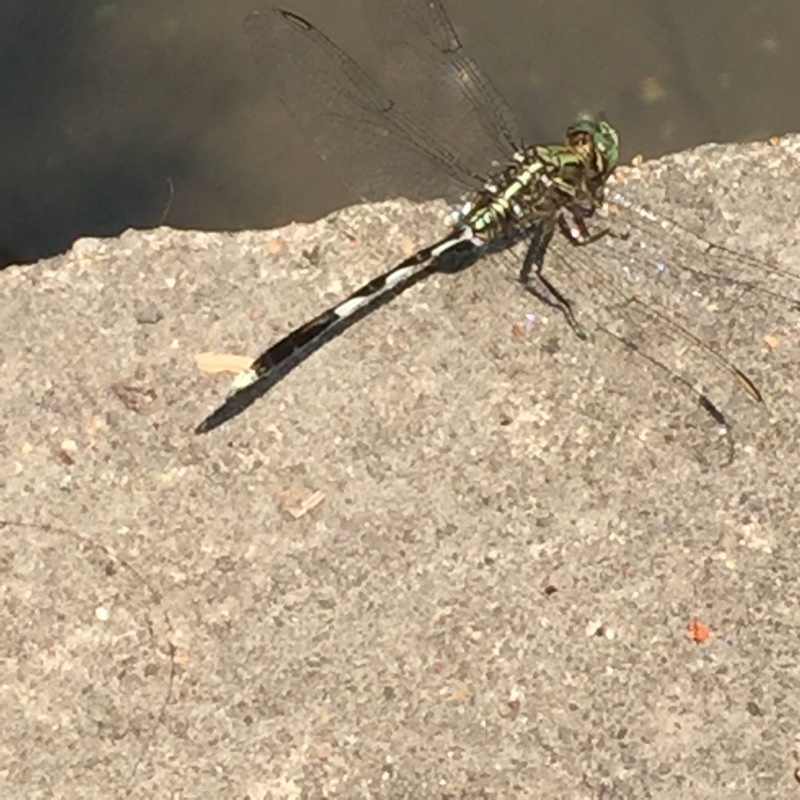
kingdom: Animalia
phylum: Arthropoda
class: Insecta
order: Odonata
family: Libellulidae
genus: Orthetrum
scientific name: Orthetrum sabina
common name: Slender skimmer
